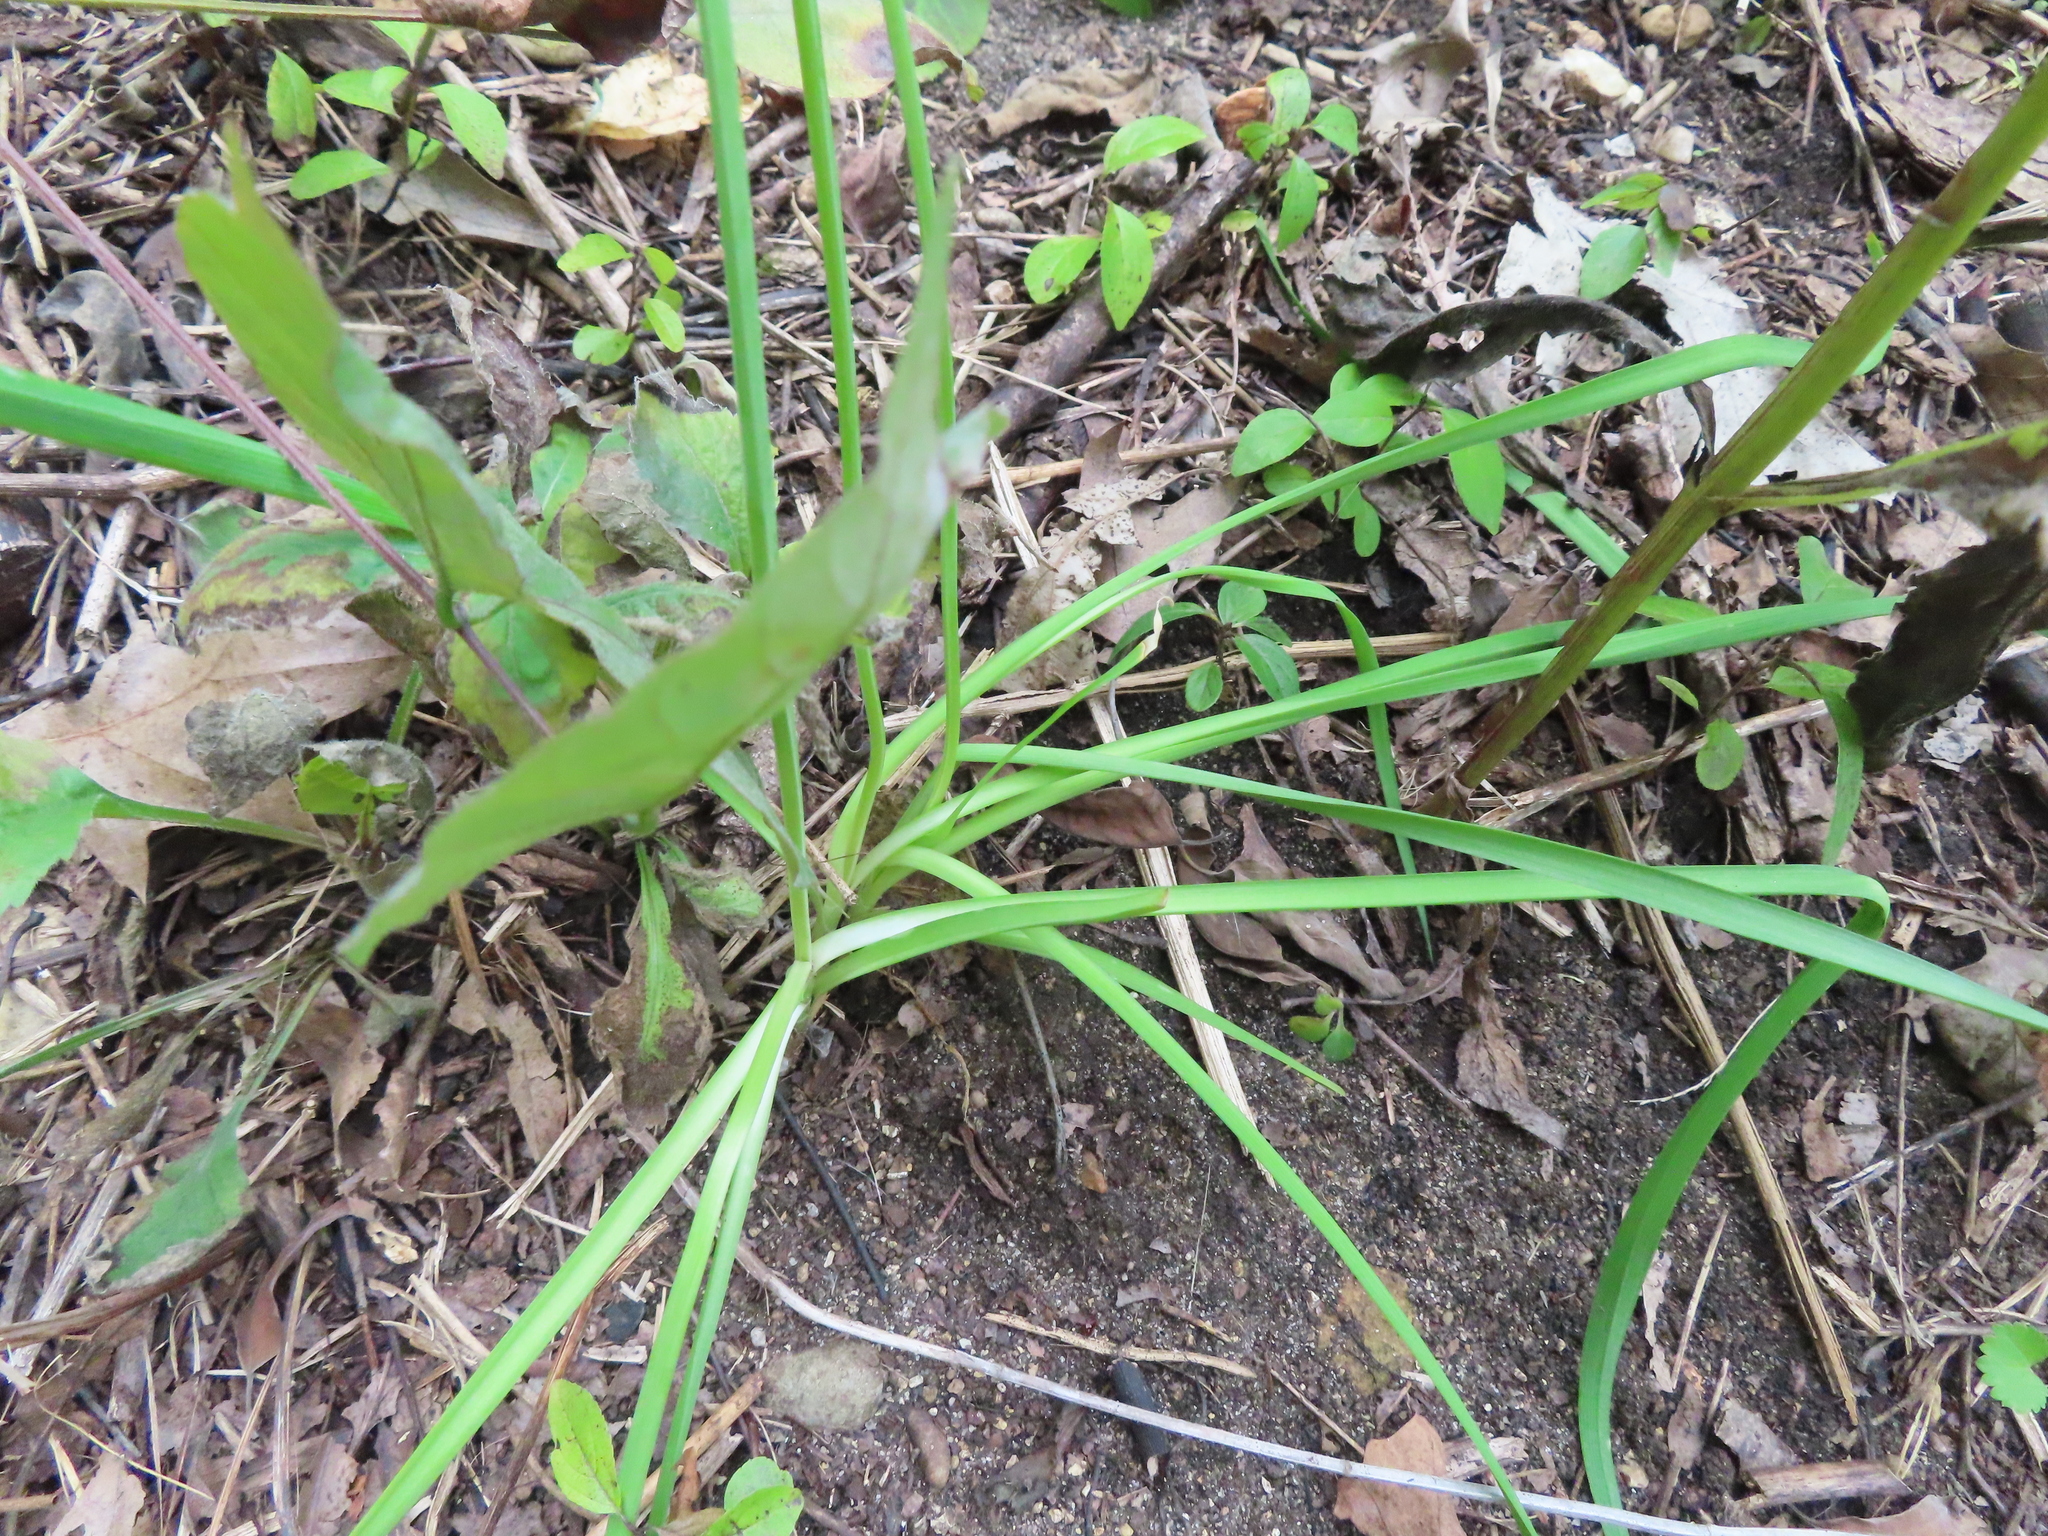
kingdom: Plantae
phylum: Tracheophyta
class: Liliopsida
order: Asparagales
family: Amaryllidaceae
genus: Allium
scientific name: Allium cernuum
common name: Nodding onion
